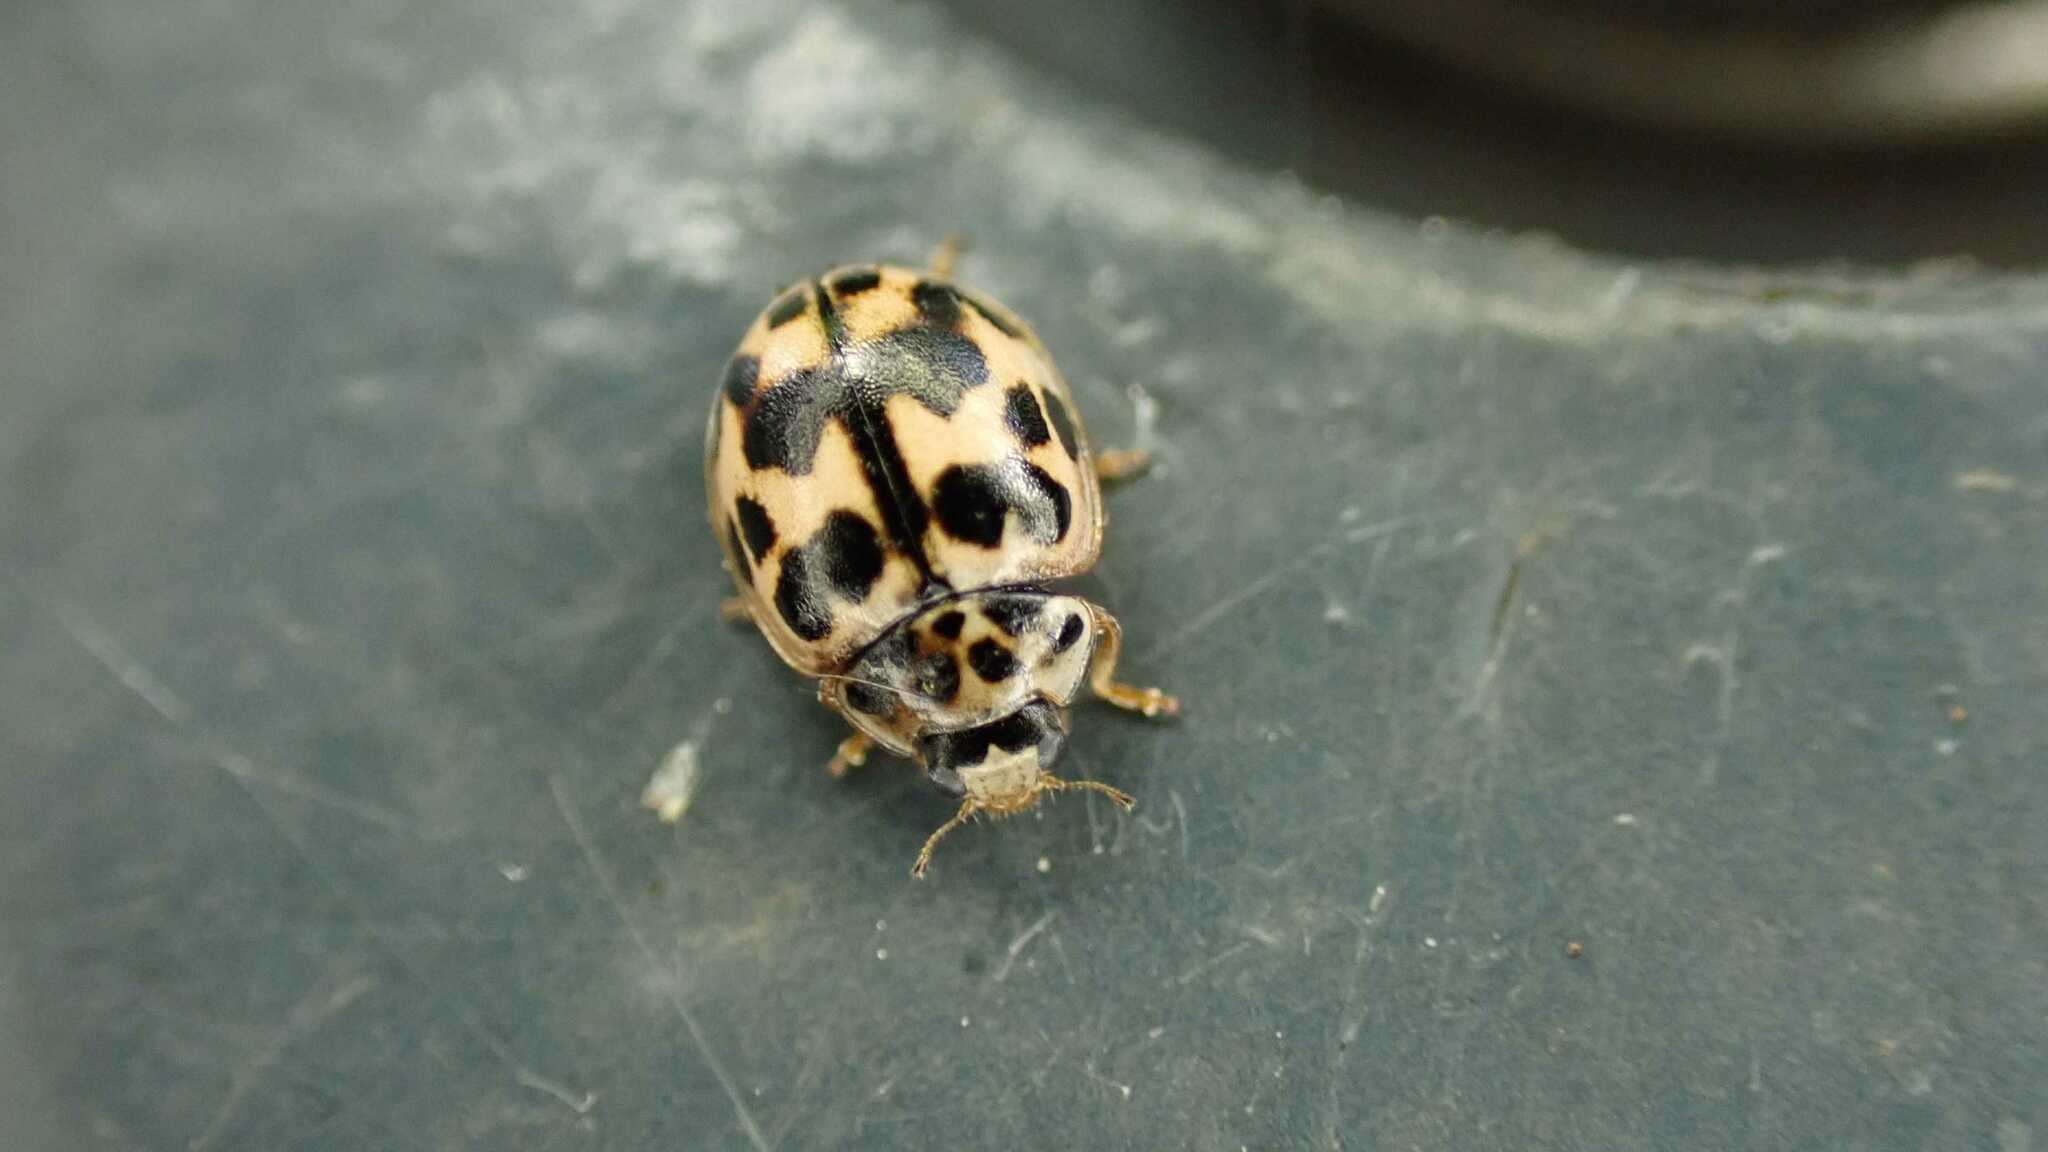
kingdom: Animalia
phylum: Arthropoda
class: Insecta
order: Coleoptera
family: Coccinellidae
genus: Oenopia
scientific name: Oenopia conglobata
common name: Ladybird beetle
